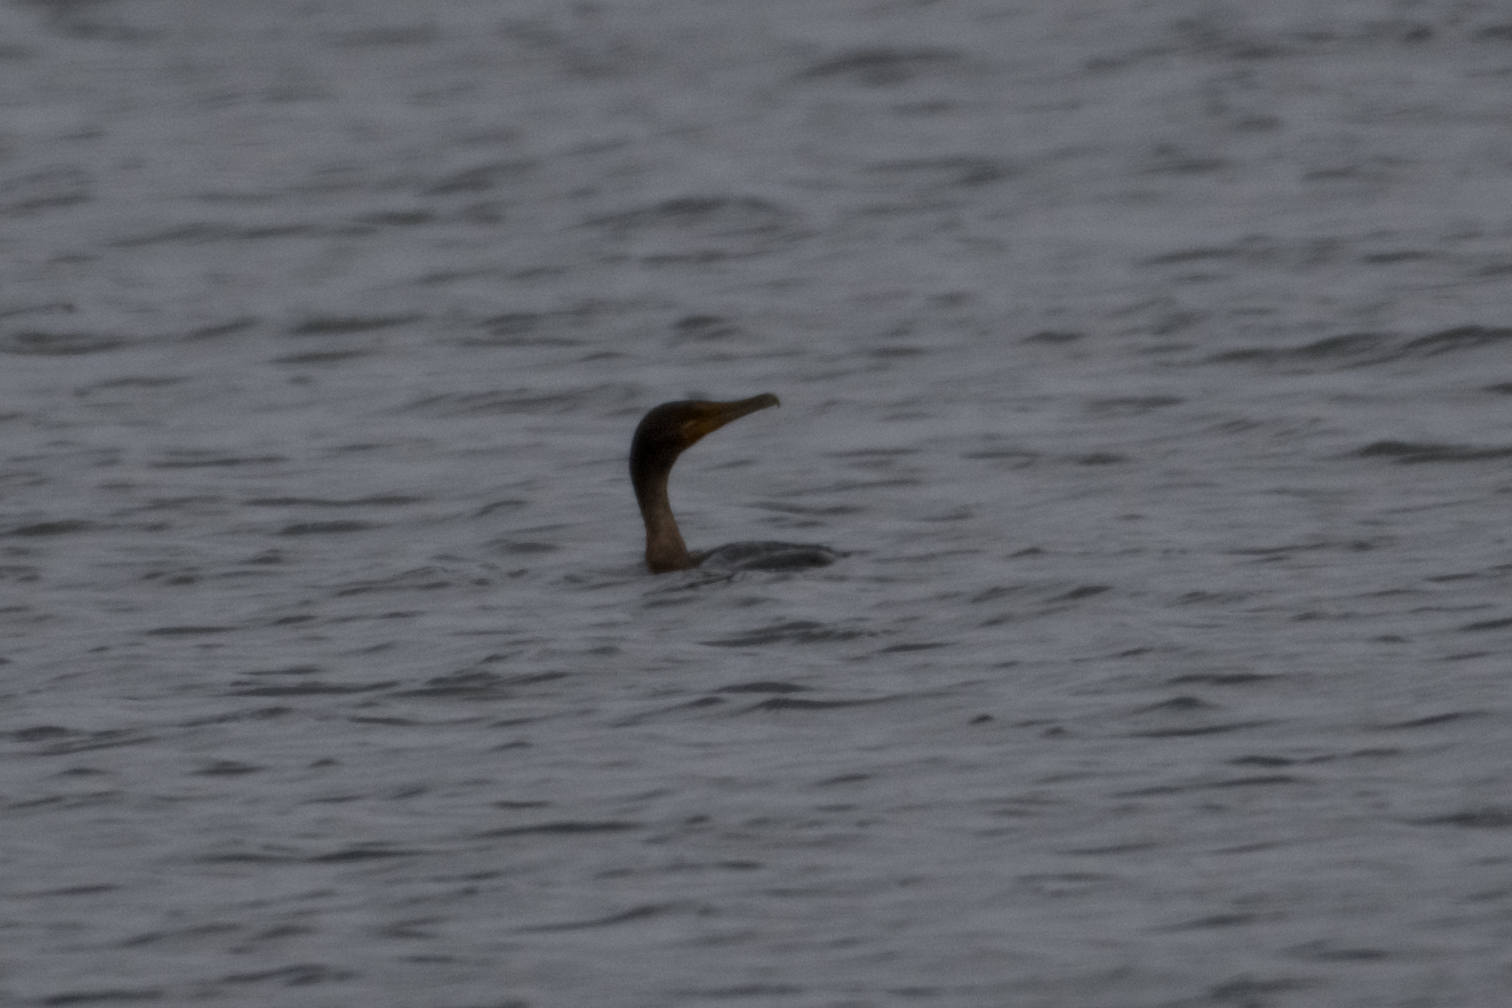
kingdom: Animalia
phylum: Chordata
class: Aves
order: Suliformes
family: Phalacrocoracidae
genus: Phalacrocorax
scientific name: Phalacrocorax auritus
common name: Double-crested cormorant
